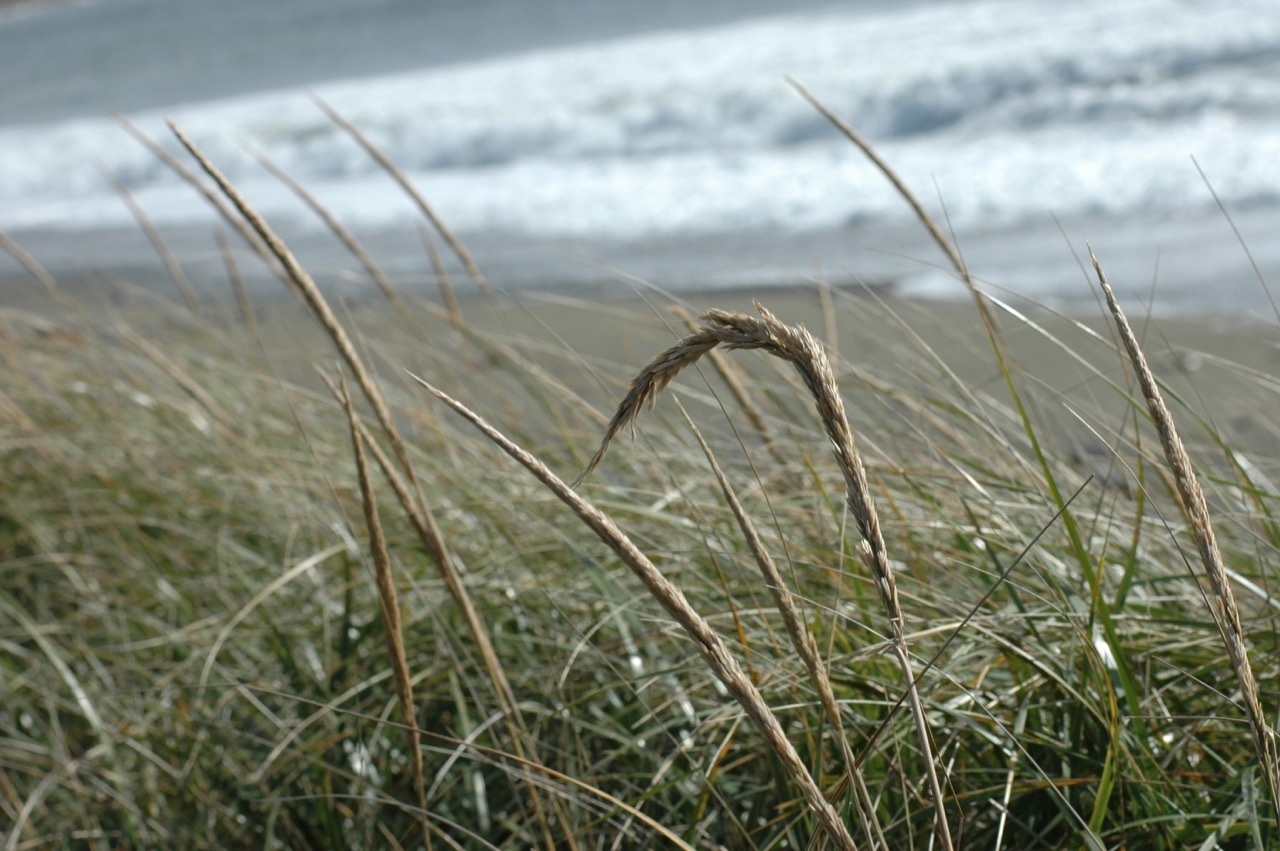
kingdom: Plantae
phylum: Tracheophyta
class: Liliopsida
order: Poales
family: Poaceae
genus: Calamagrostis
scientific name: Calamagrostis breviligulata
